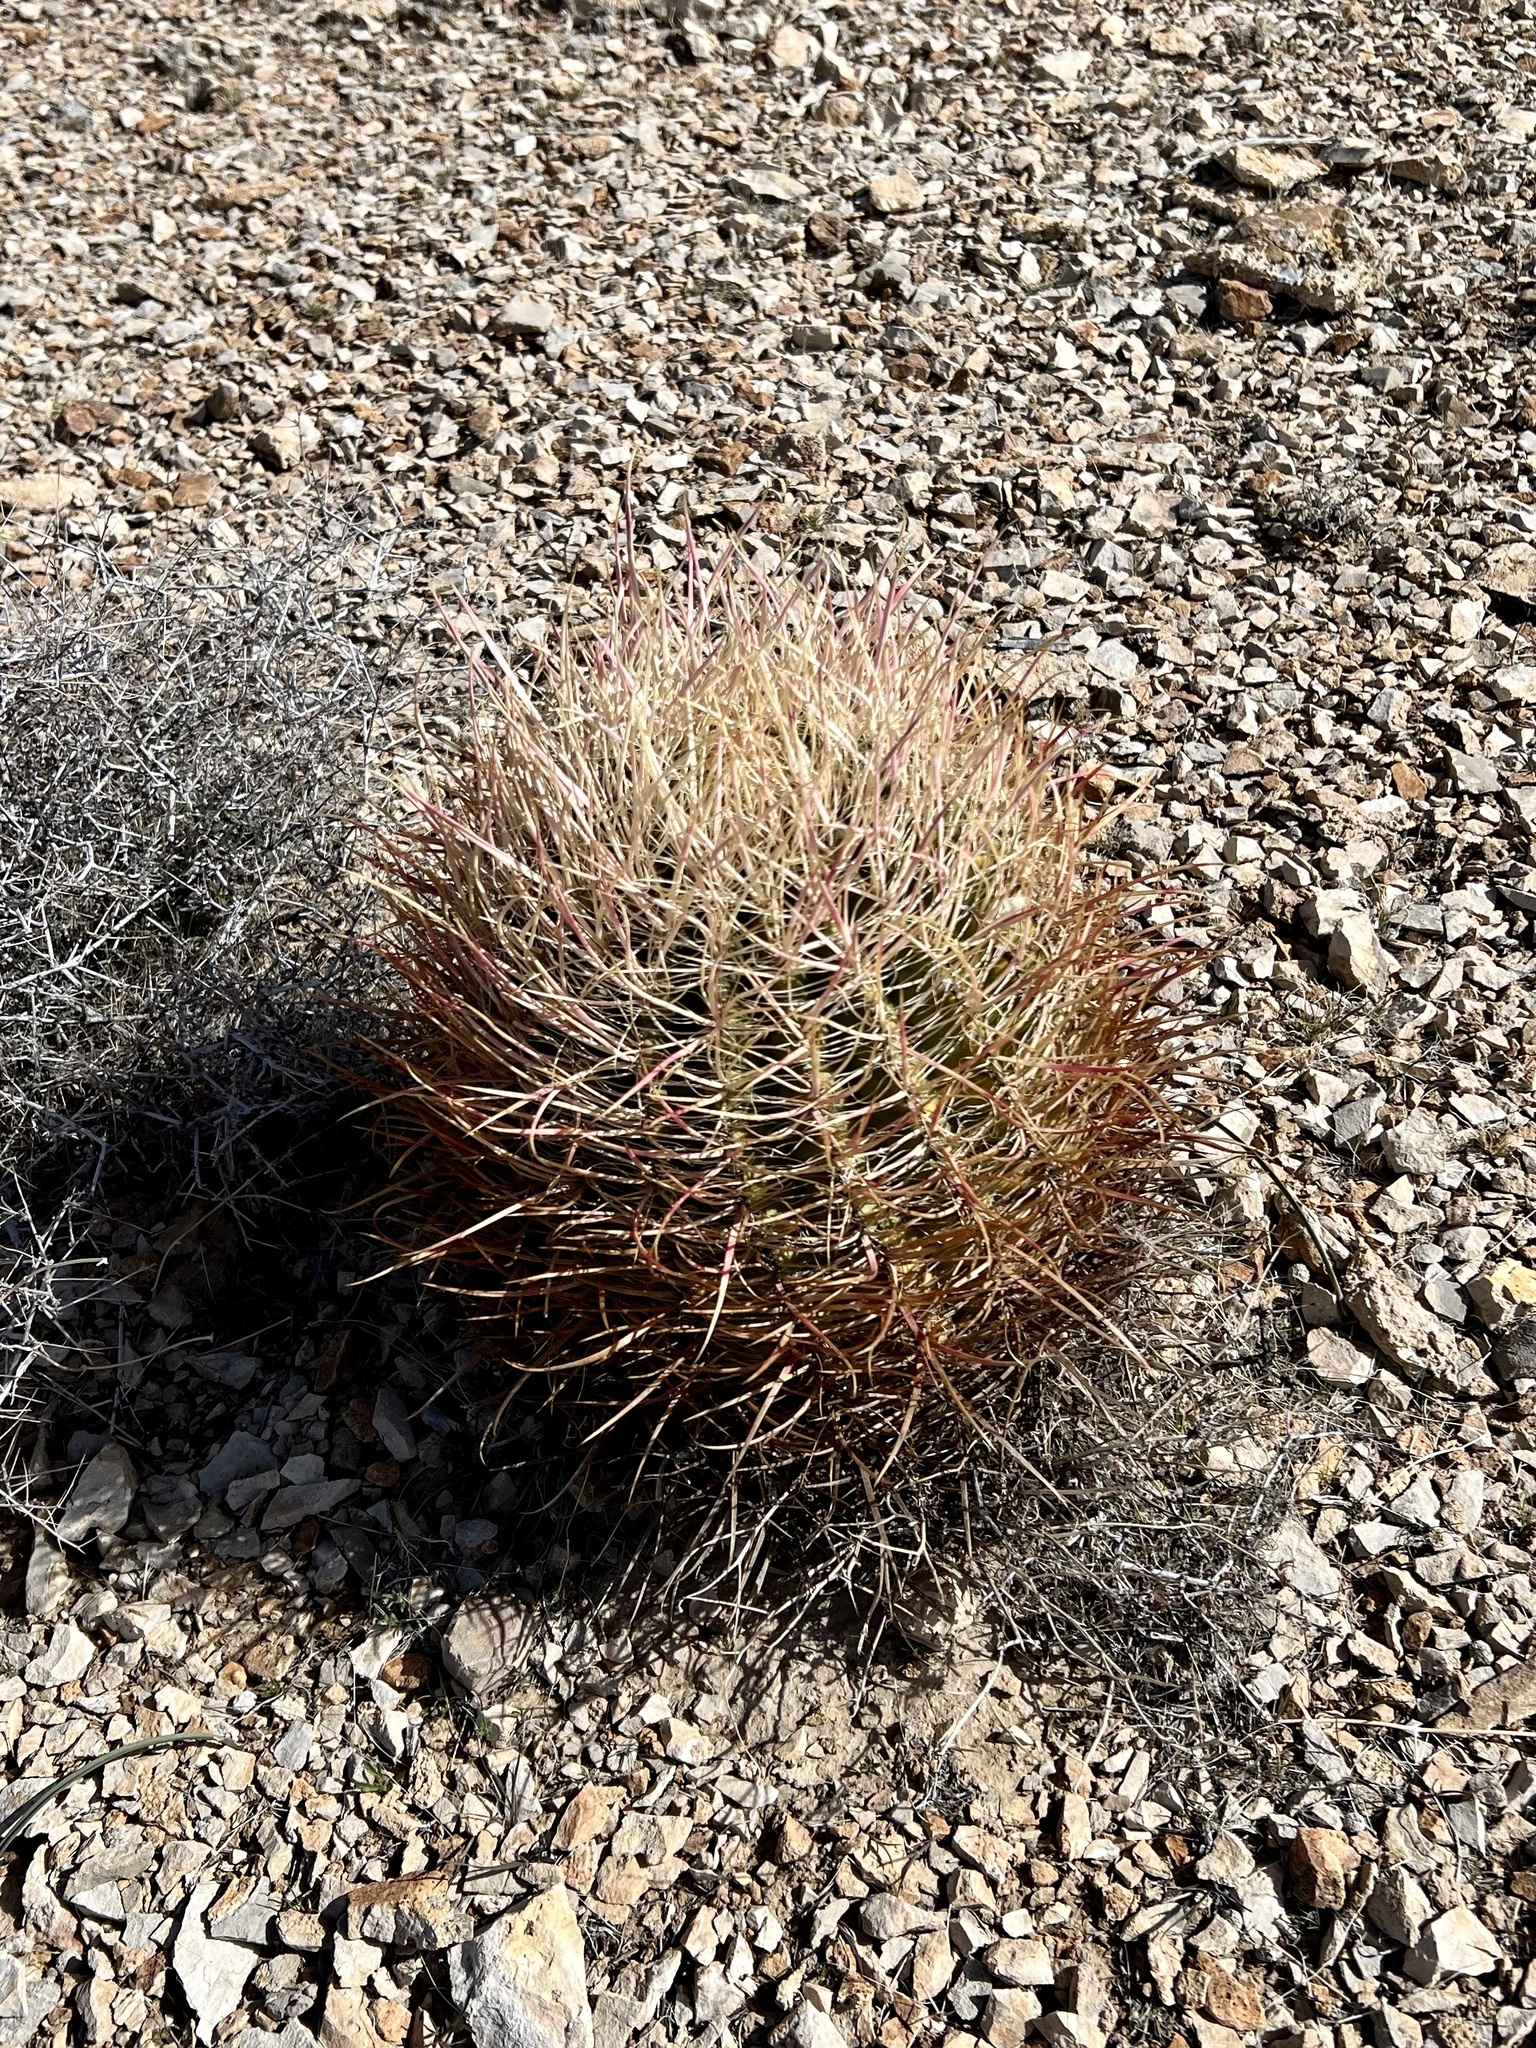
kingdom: Plantae
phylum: Tracheophyta
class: Magnoliopsida
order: Caryophyllales
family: Cactaceae
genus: Ferocactus
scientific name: Ferocactus cylindraceus
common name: California barrel cactus
